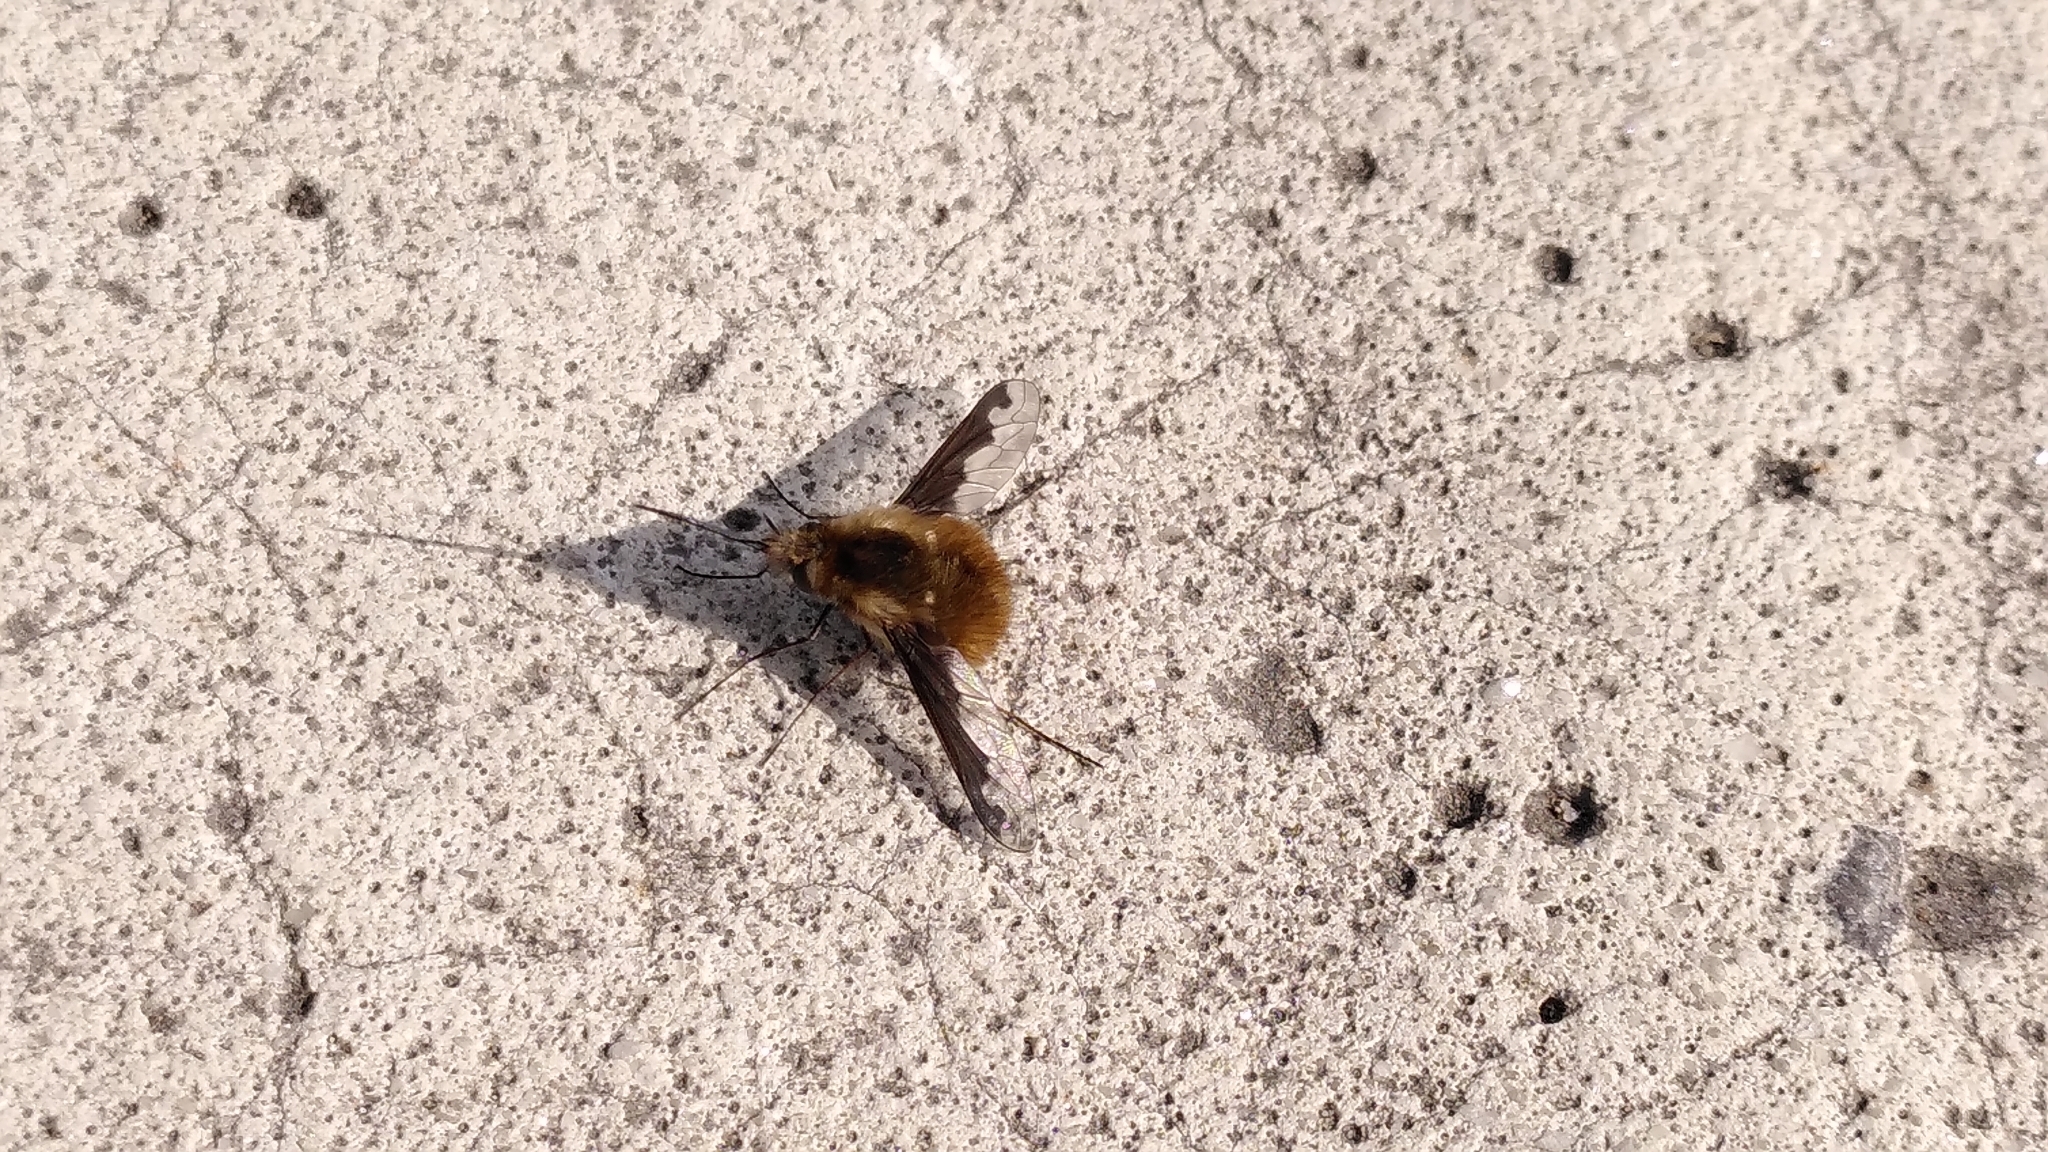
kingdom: Animalia
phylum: Arthropoda
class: Insecta
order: Diptera
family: Bombyliidae
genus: Bombylius
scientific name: Bombylius major
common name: Bee fly
